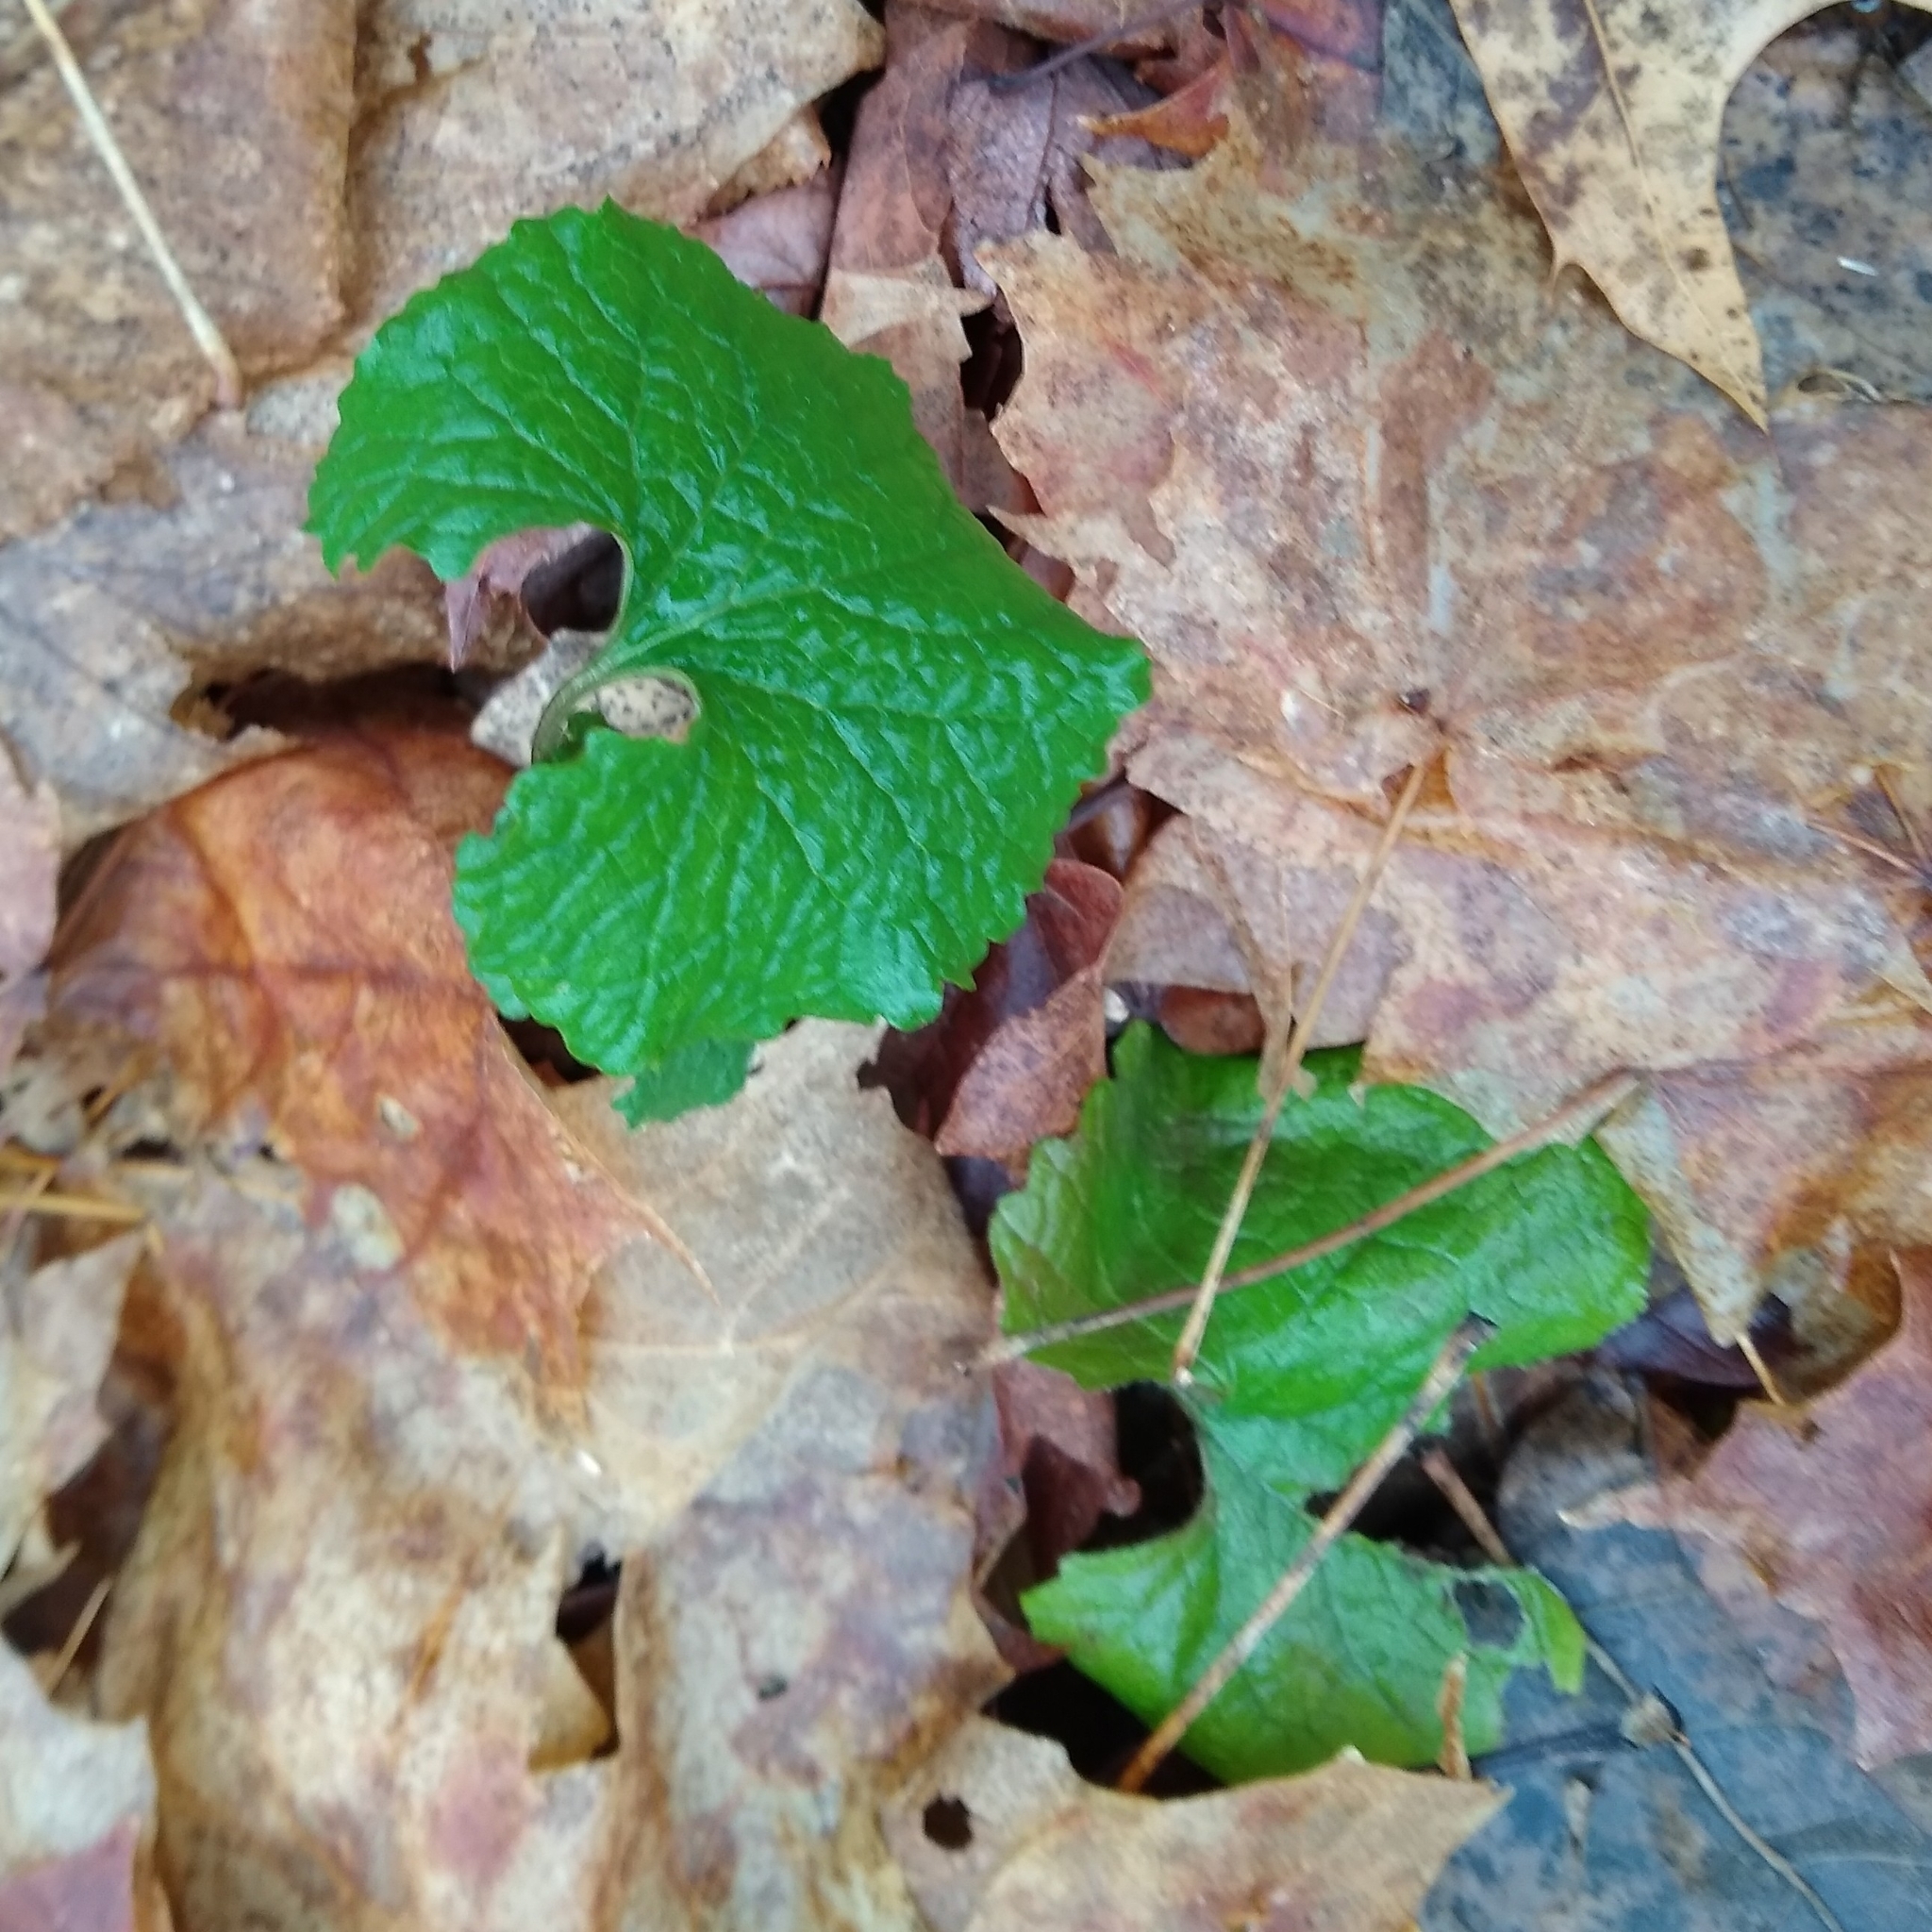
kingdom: Plantae
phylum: Tracheophyta
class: Magnoliopsida
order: Brassicales
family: Brassicaceae
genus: Alliaria
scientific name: Alliaria petiolata
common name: Garlic mustard
